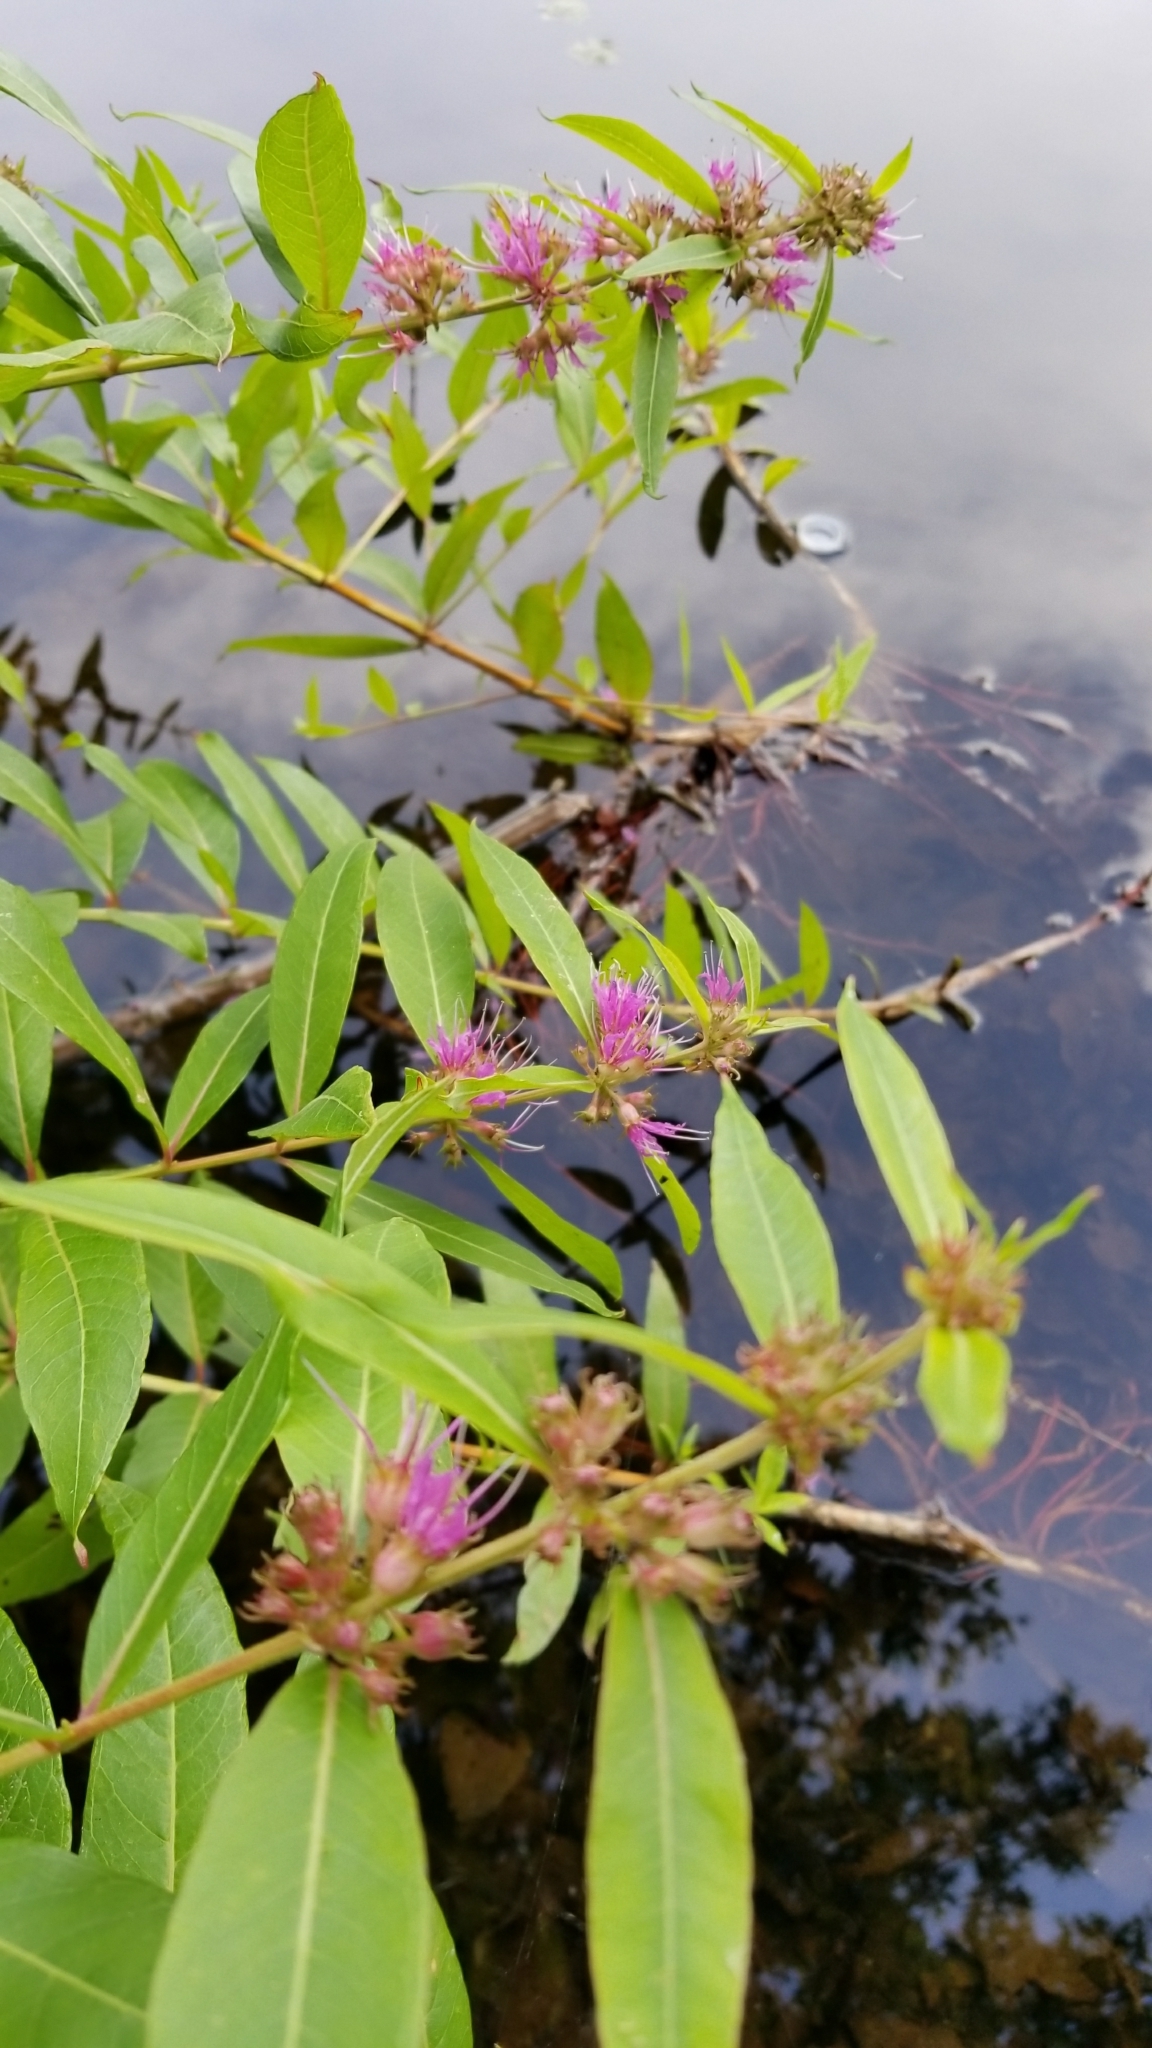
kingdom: Plantae
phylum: Tracheophyta
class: Magnoliopsida
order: Myrtales
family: Lythraceae
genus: Decodon
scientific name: Decodon verticillatus
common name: Hairy swamp loosestrife
